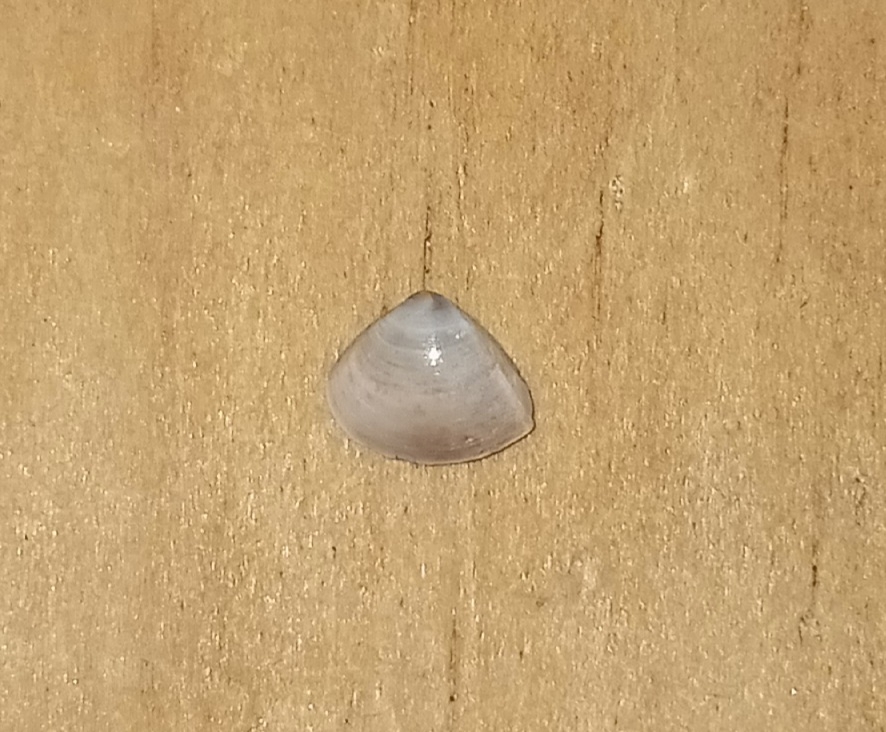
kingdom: Animalia
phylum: Mollusca
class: Bivalvia
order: Venerida
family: Mactridae
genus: Mulinia
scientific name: Mulinia lateralis
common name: Dwarf surfclam
